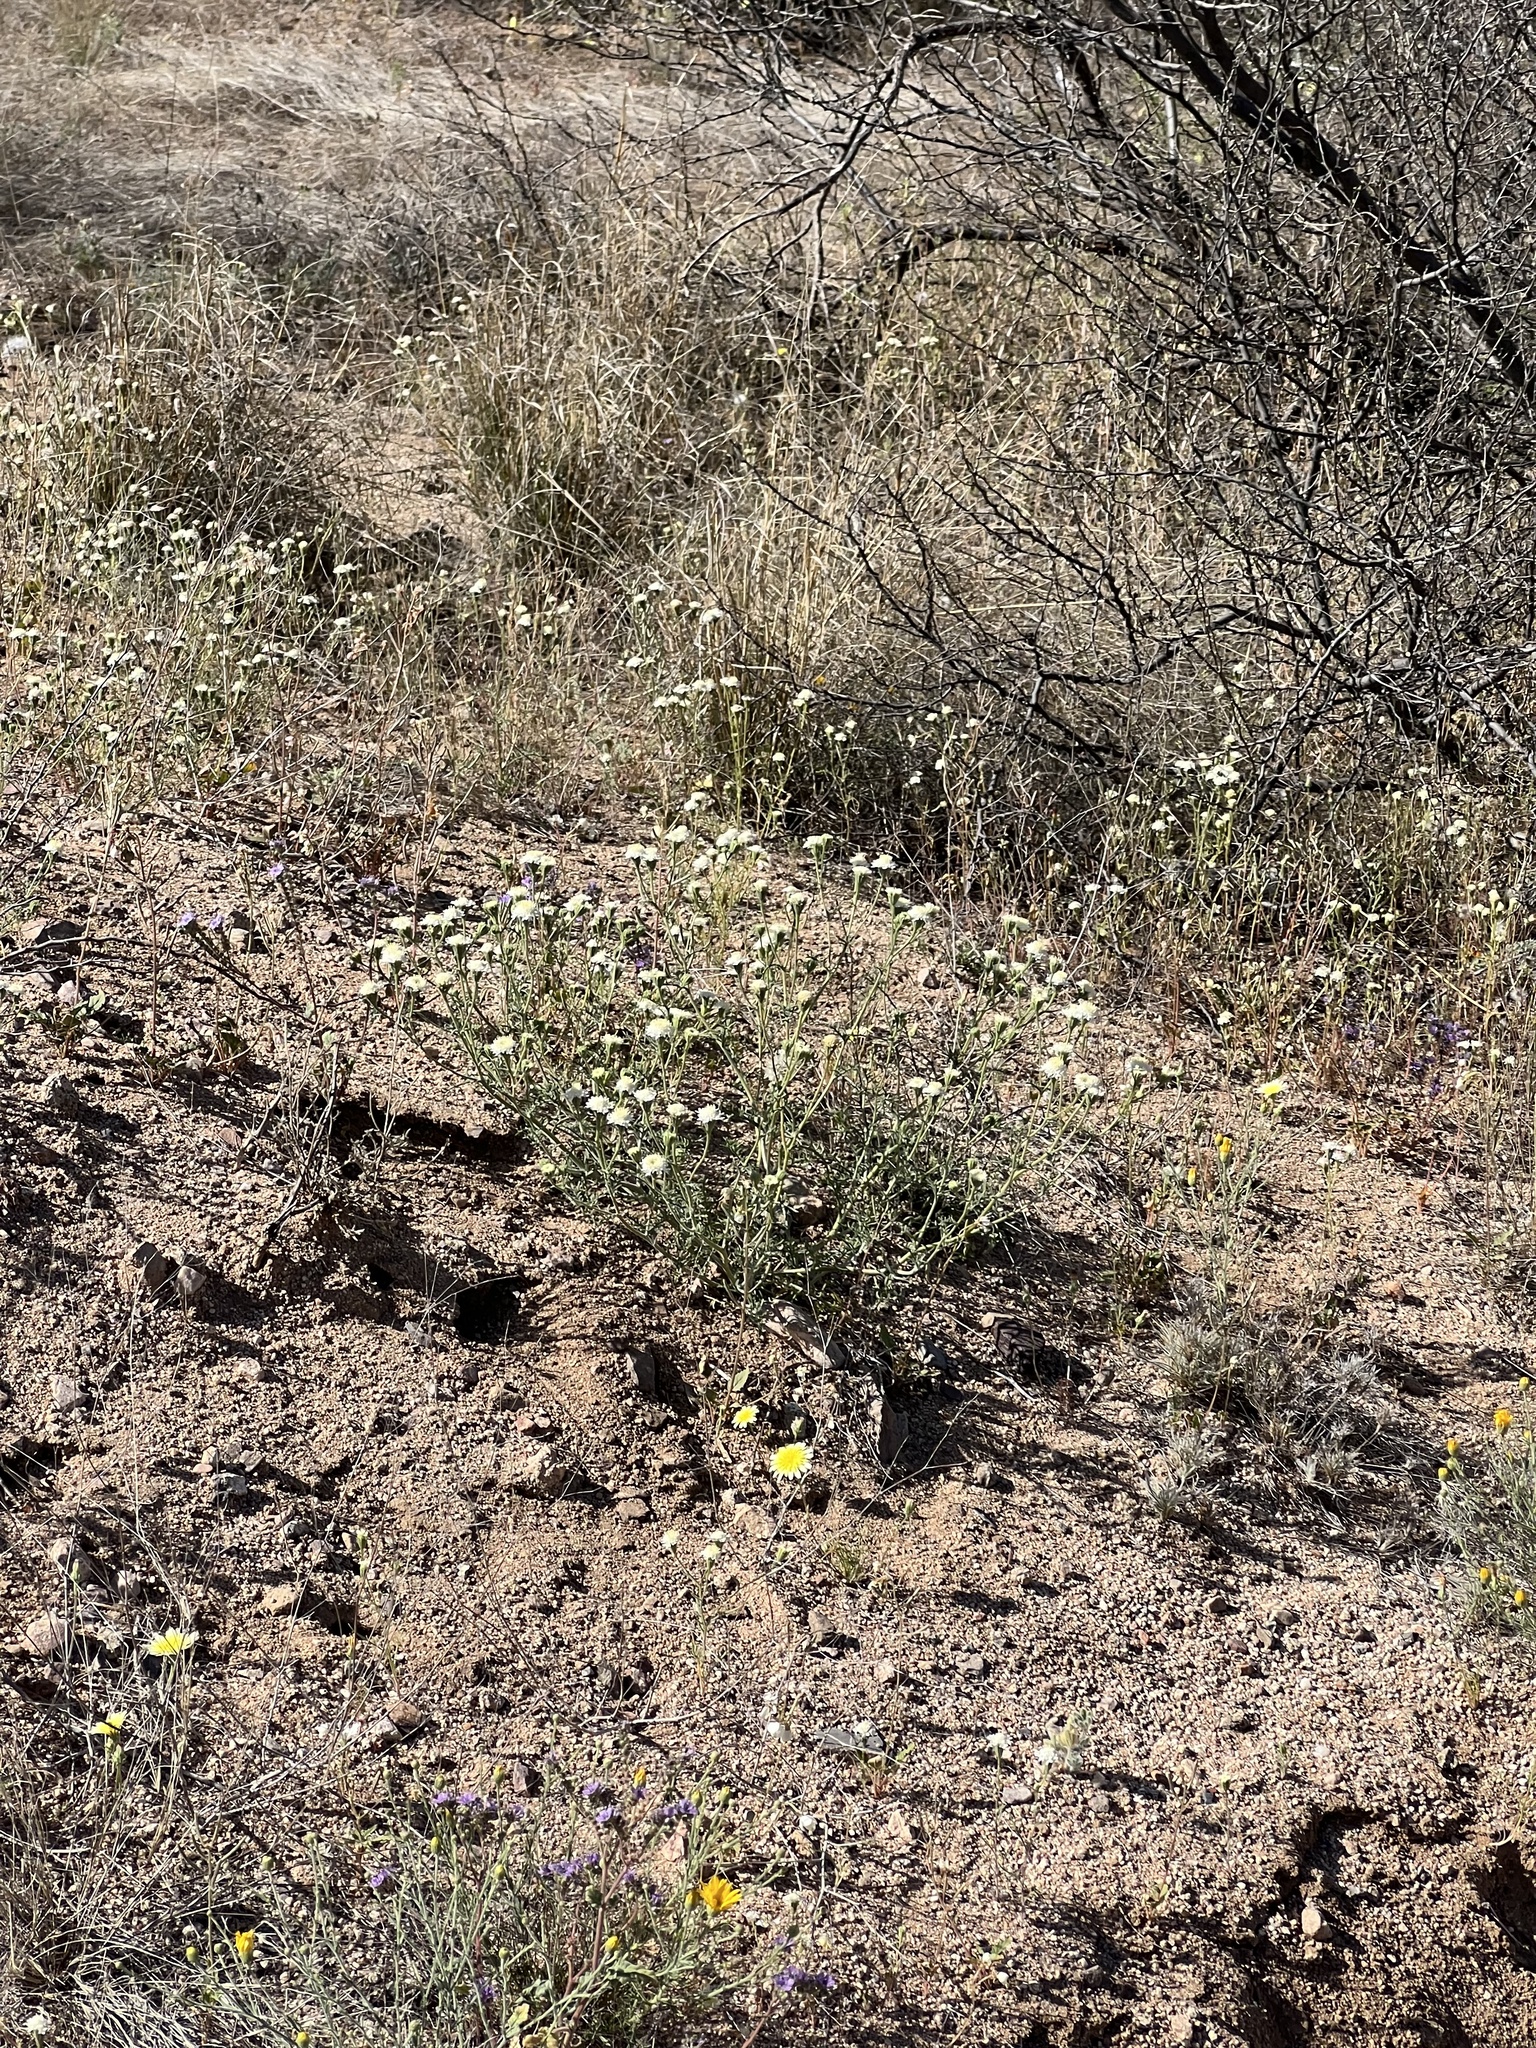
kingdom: Plantae
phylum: Tracheophyta
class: Magnoliopsida
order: Asterales
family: Asteraceae
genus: Chaenactis
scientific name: Chaenactis stevioides
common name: Desert pincushion
